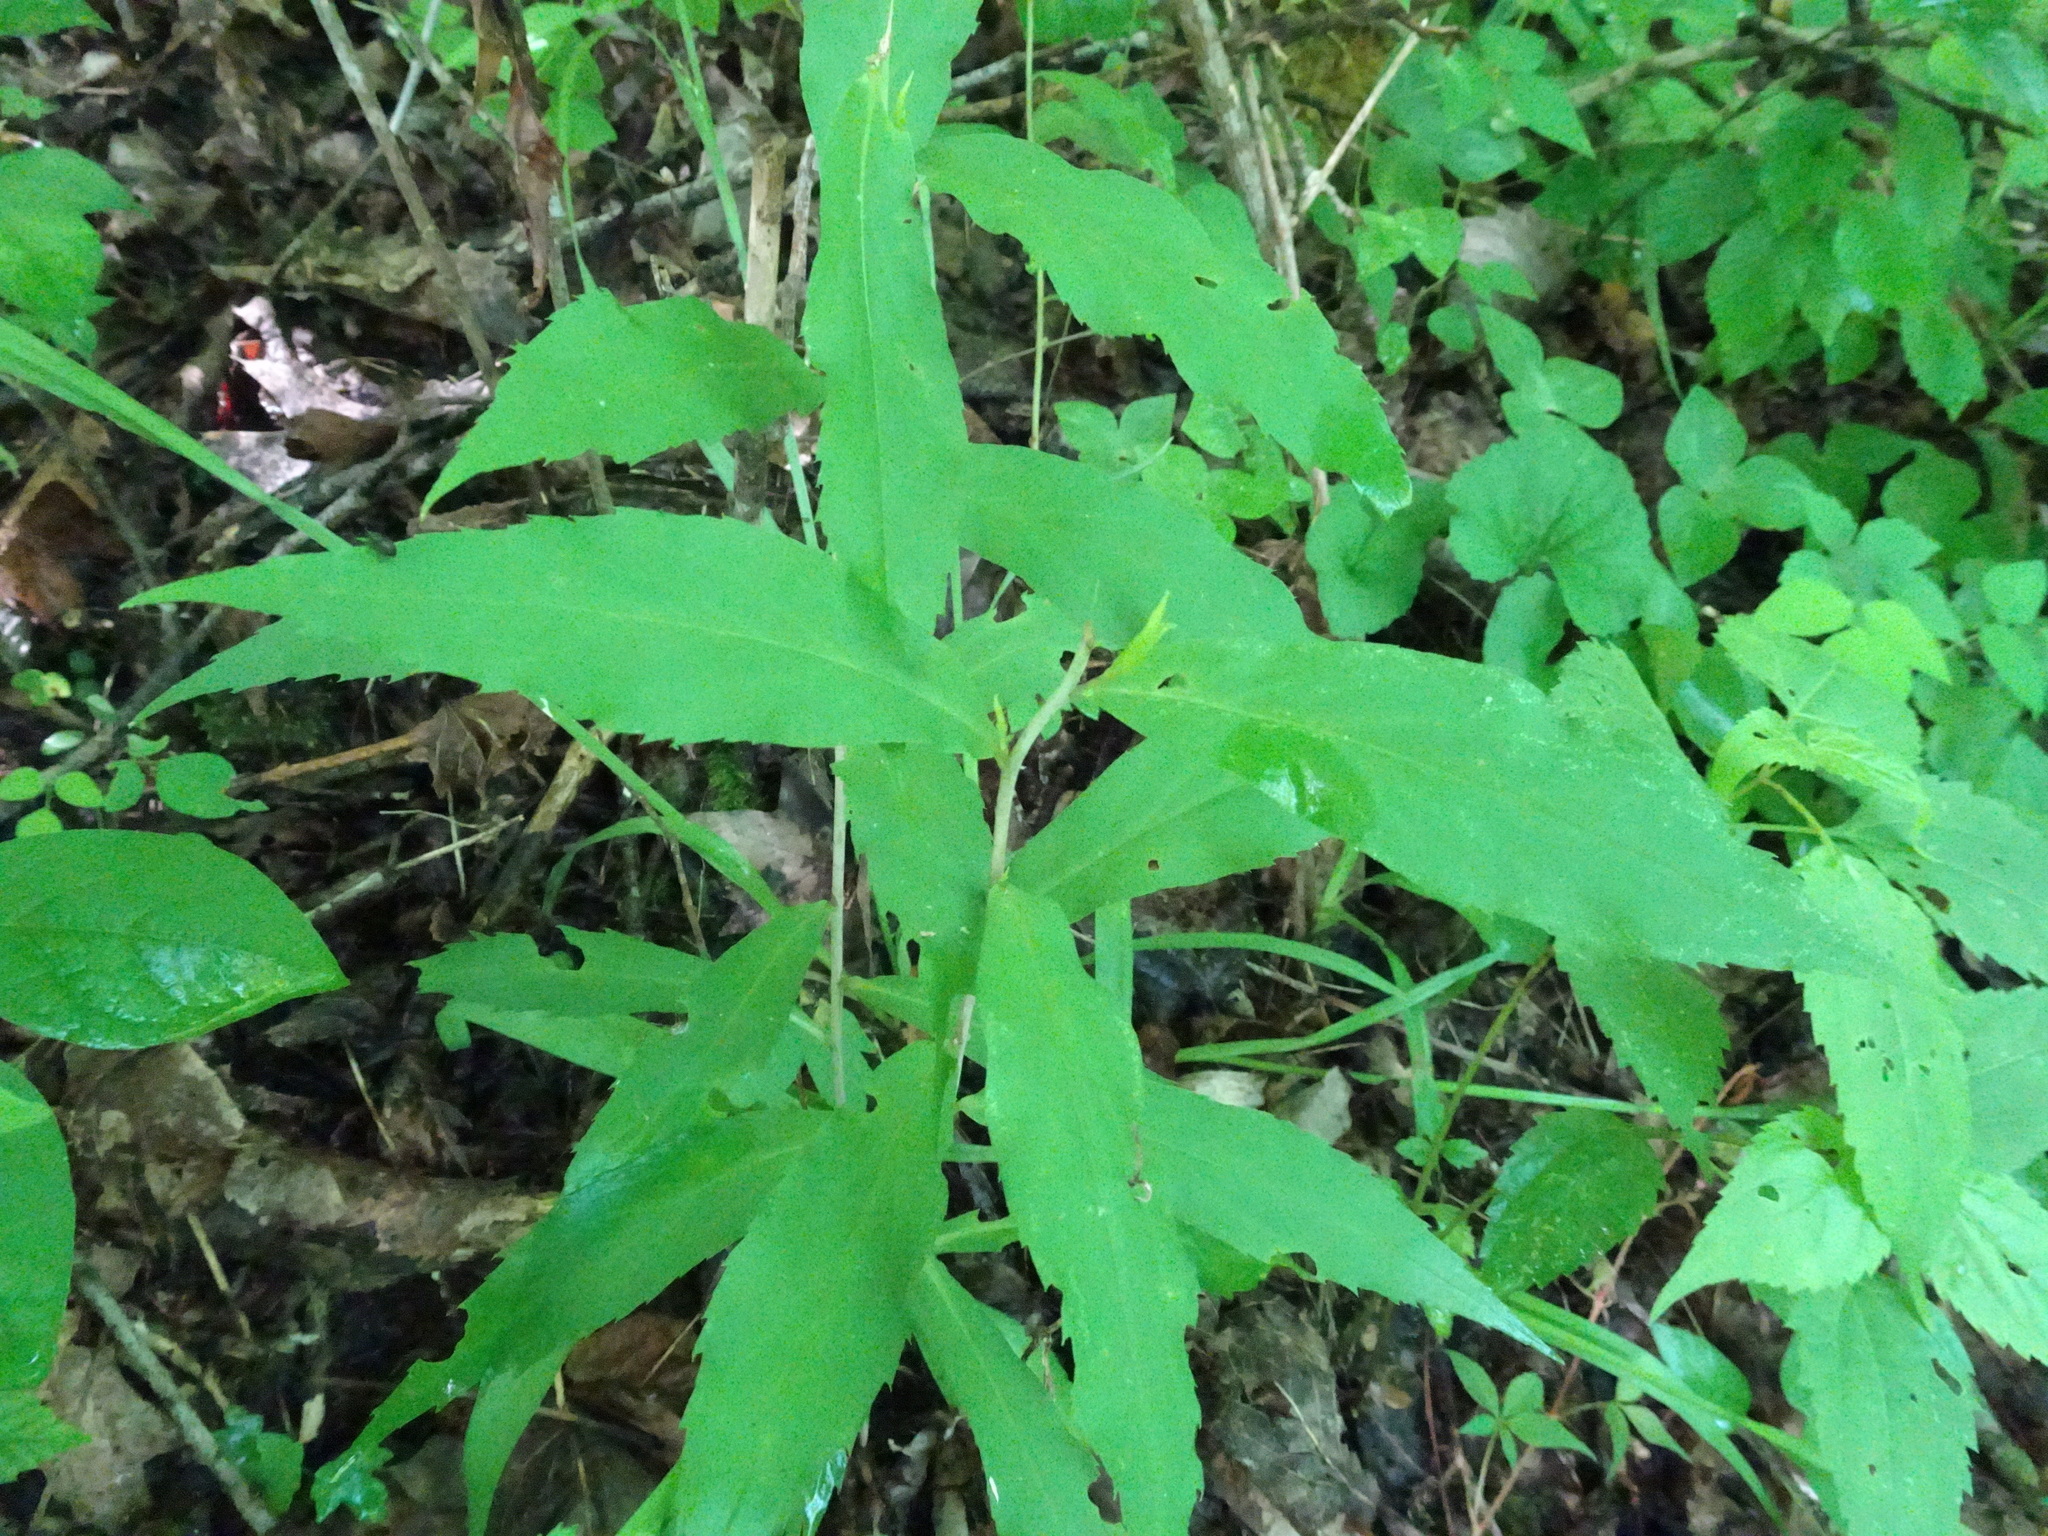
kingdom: Plantae
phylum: Tracheophyta
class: Magnoliopsida
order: Asterales
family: Asteraceae
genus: Solidago
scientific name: Solidago caesia
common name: Woodland goldenrod
